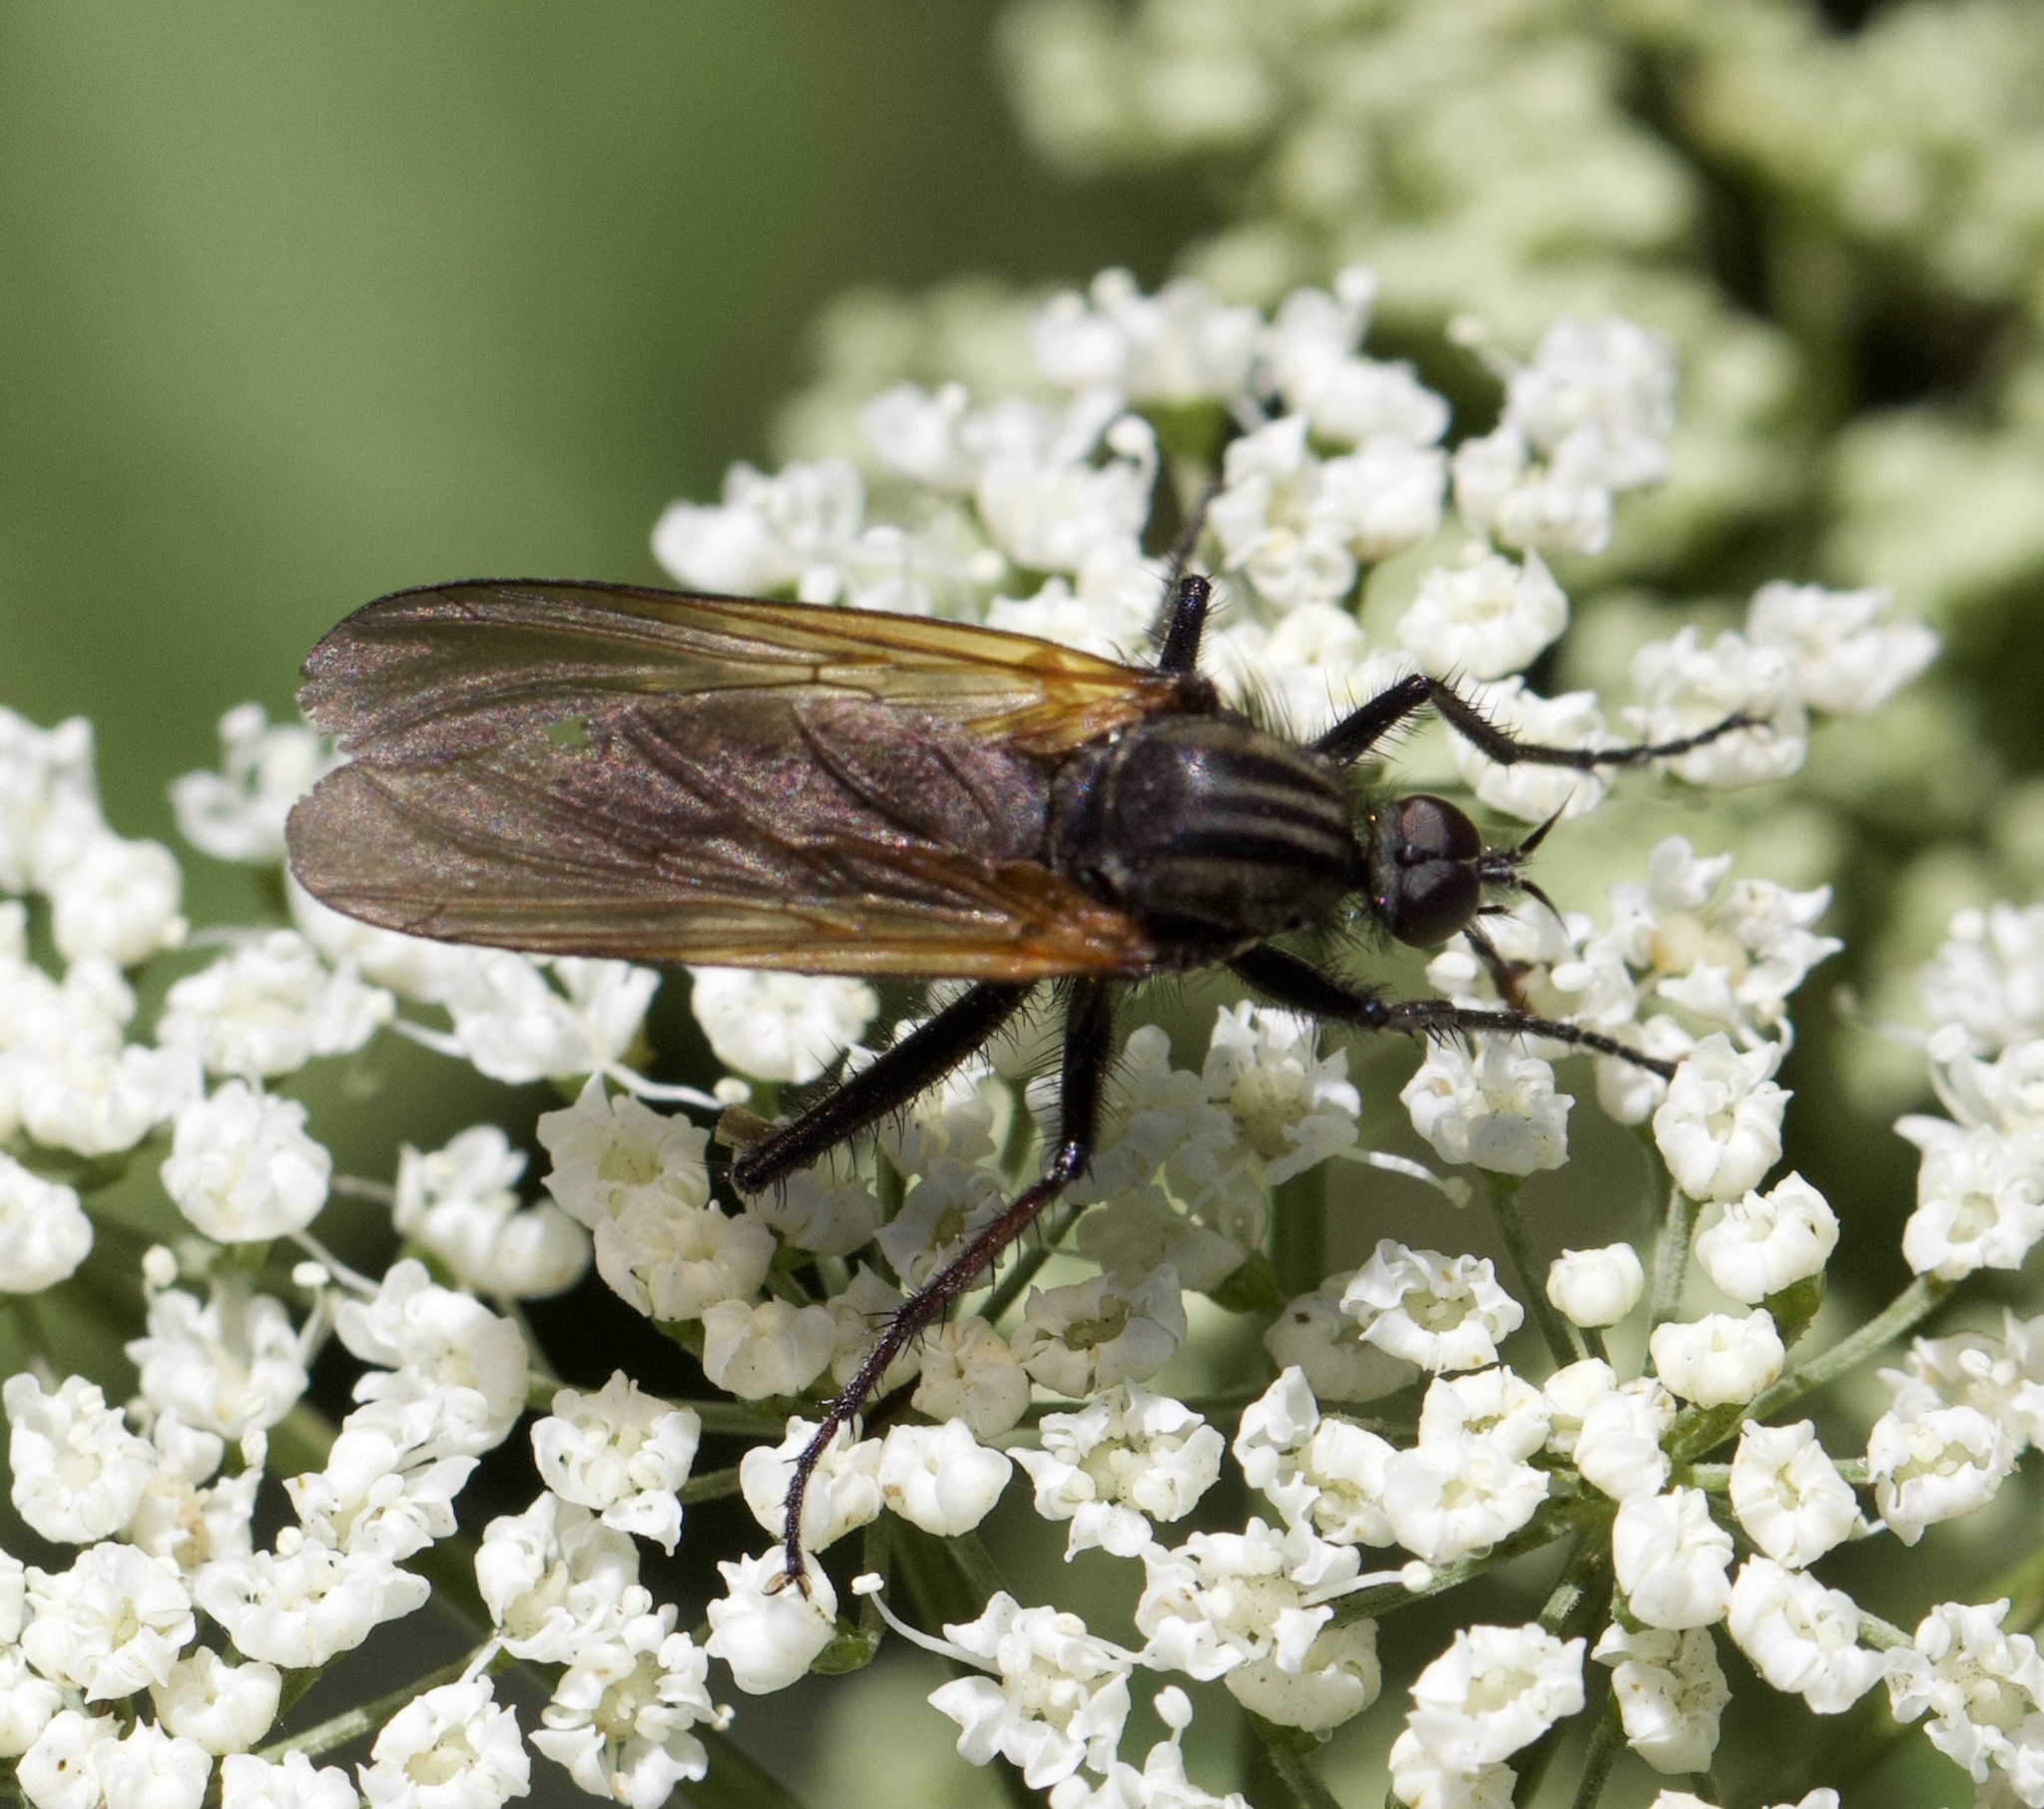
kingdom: Animalia
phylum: Arthropoda
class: Insecta
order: Diptera
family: Empididae
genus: Empis
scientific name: Empis tessellata
